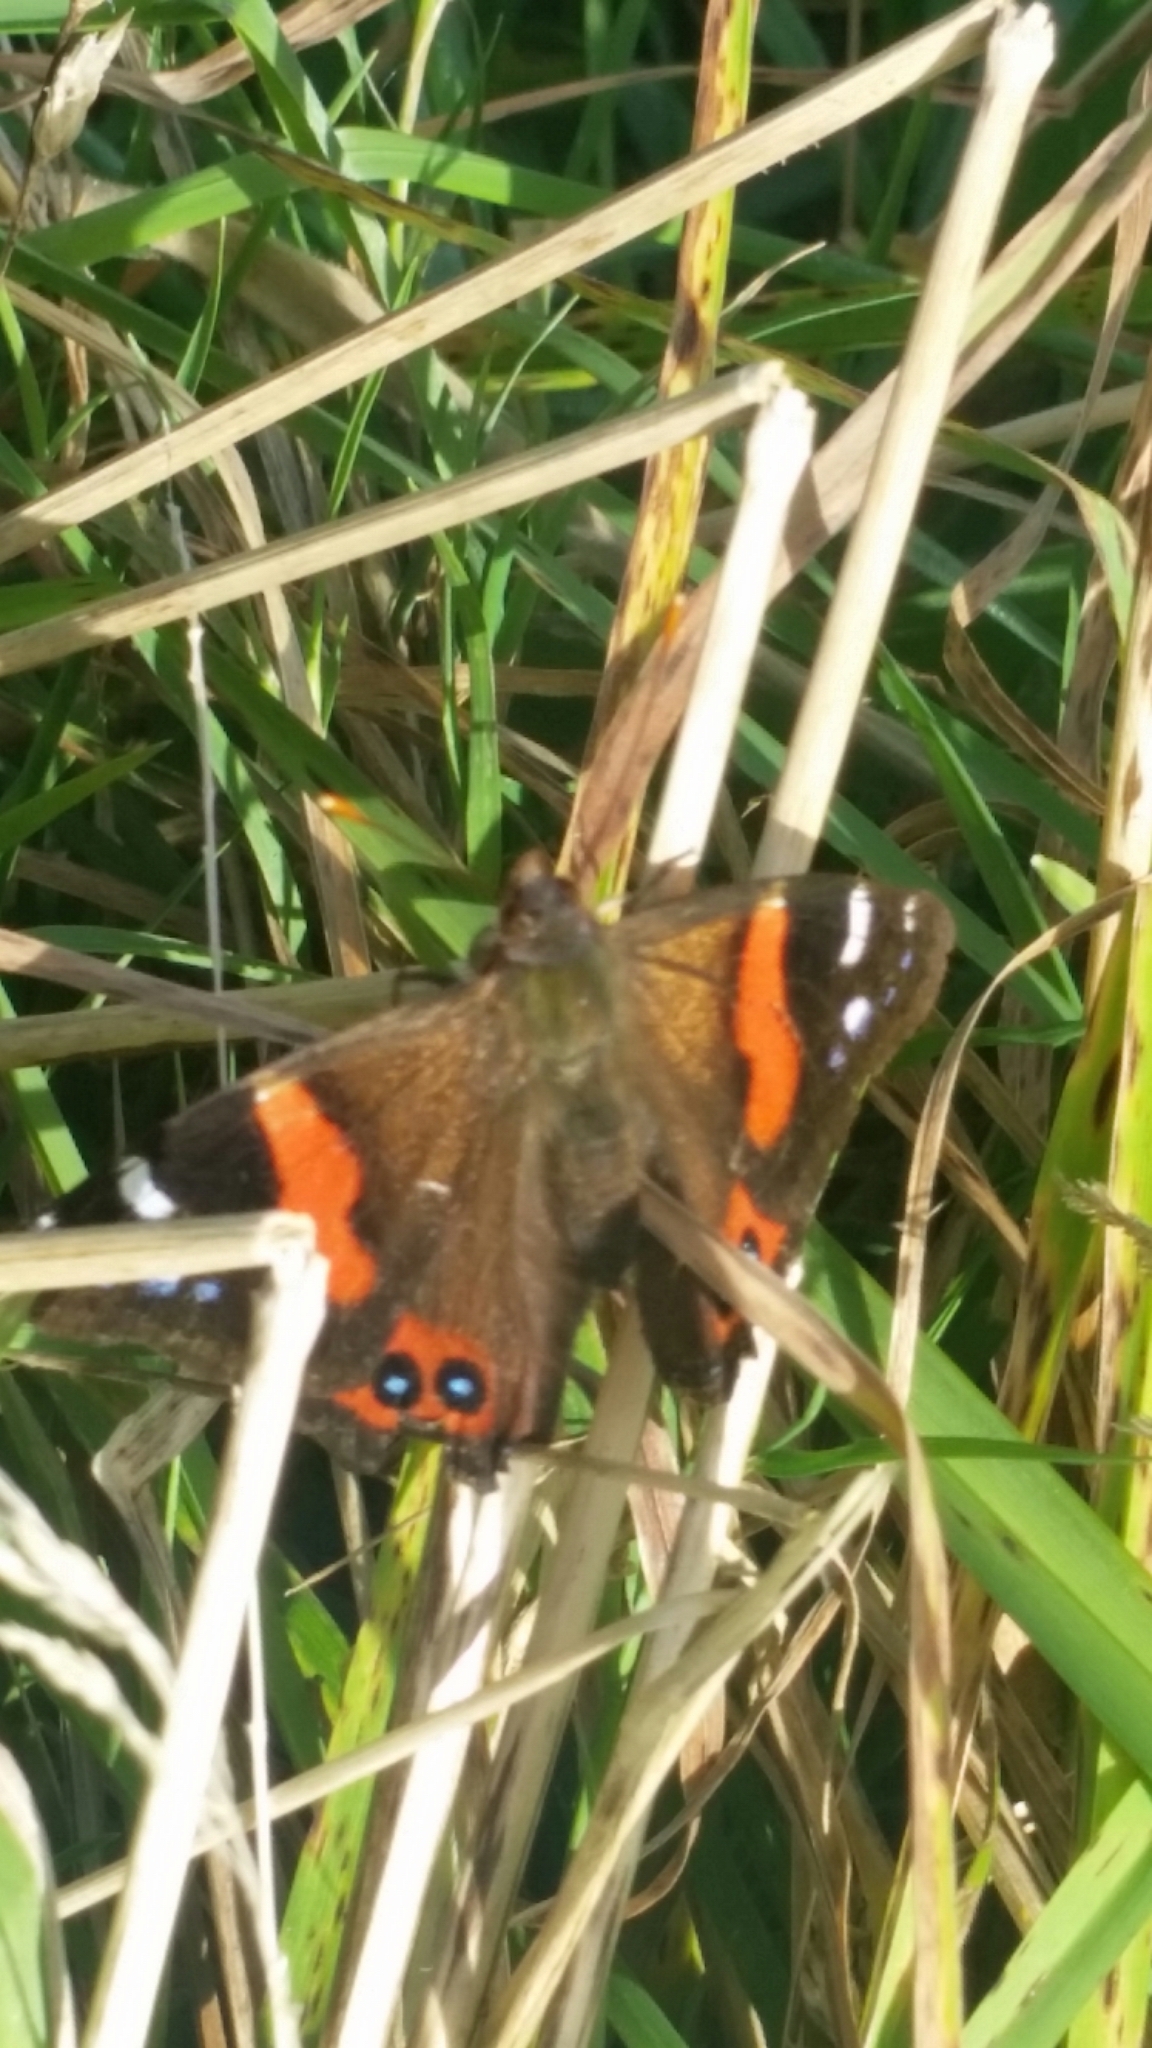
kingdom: Animalia
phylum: Arthropoda
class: Insecta
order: Lepidoptera
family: Nymphalidae
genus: Vanessa
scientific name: Vanessa gonerilla
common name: New zealand red admiral
